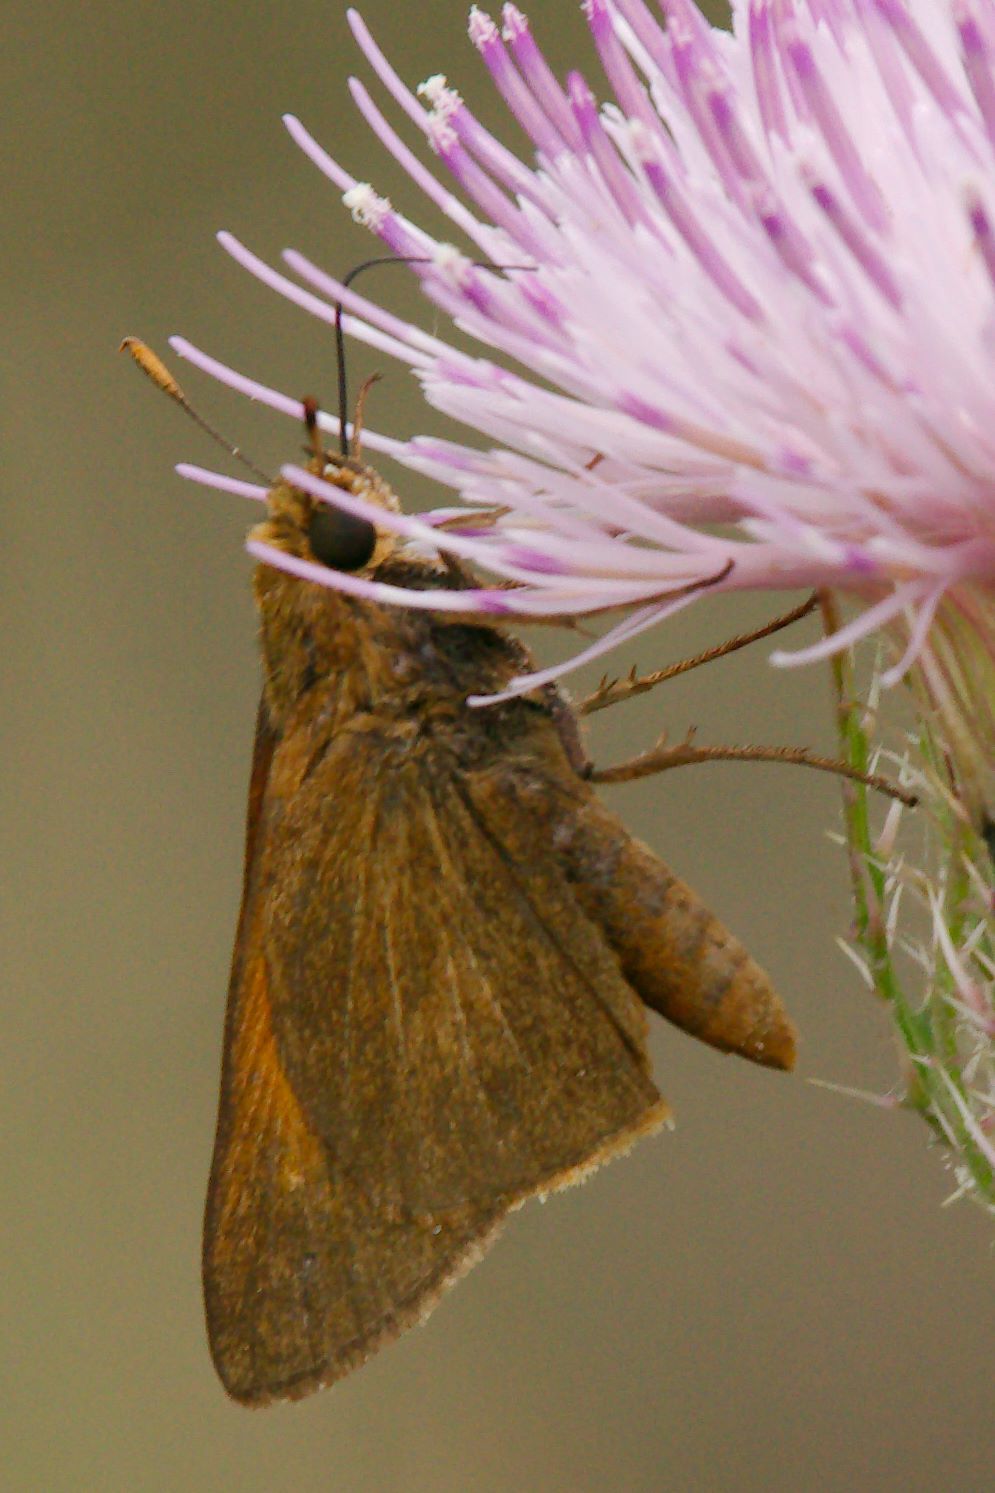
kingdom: Animalia
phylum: Arthropoda
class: Insecta
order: Lepidoptera
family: Hesperiidae
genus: Euphyes
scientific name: Euphyes pilatka
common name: Palatka skipper
